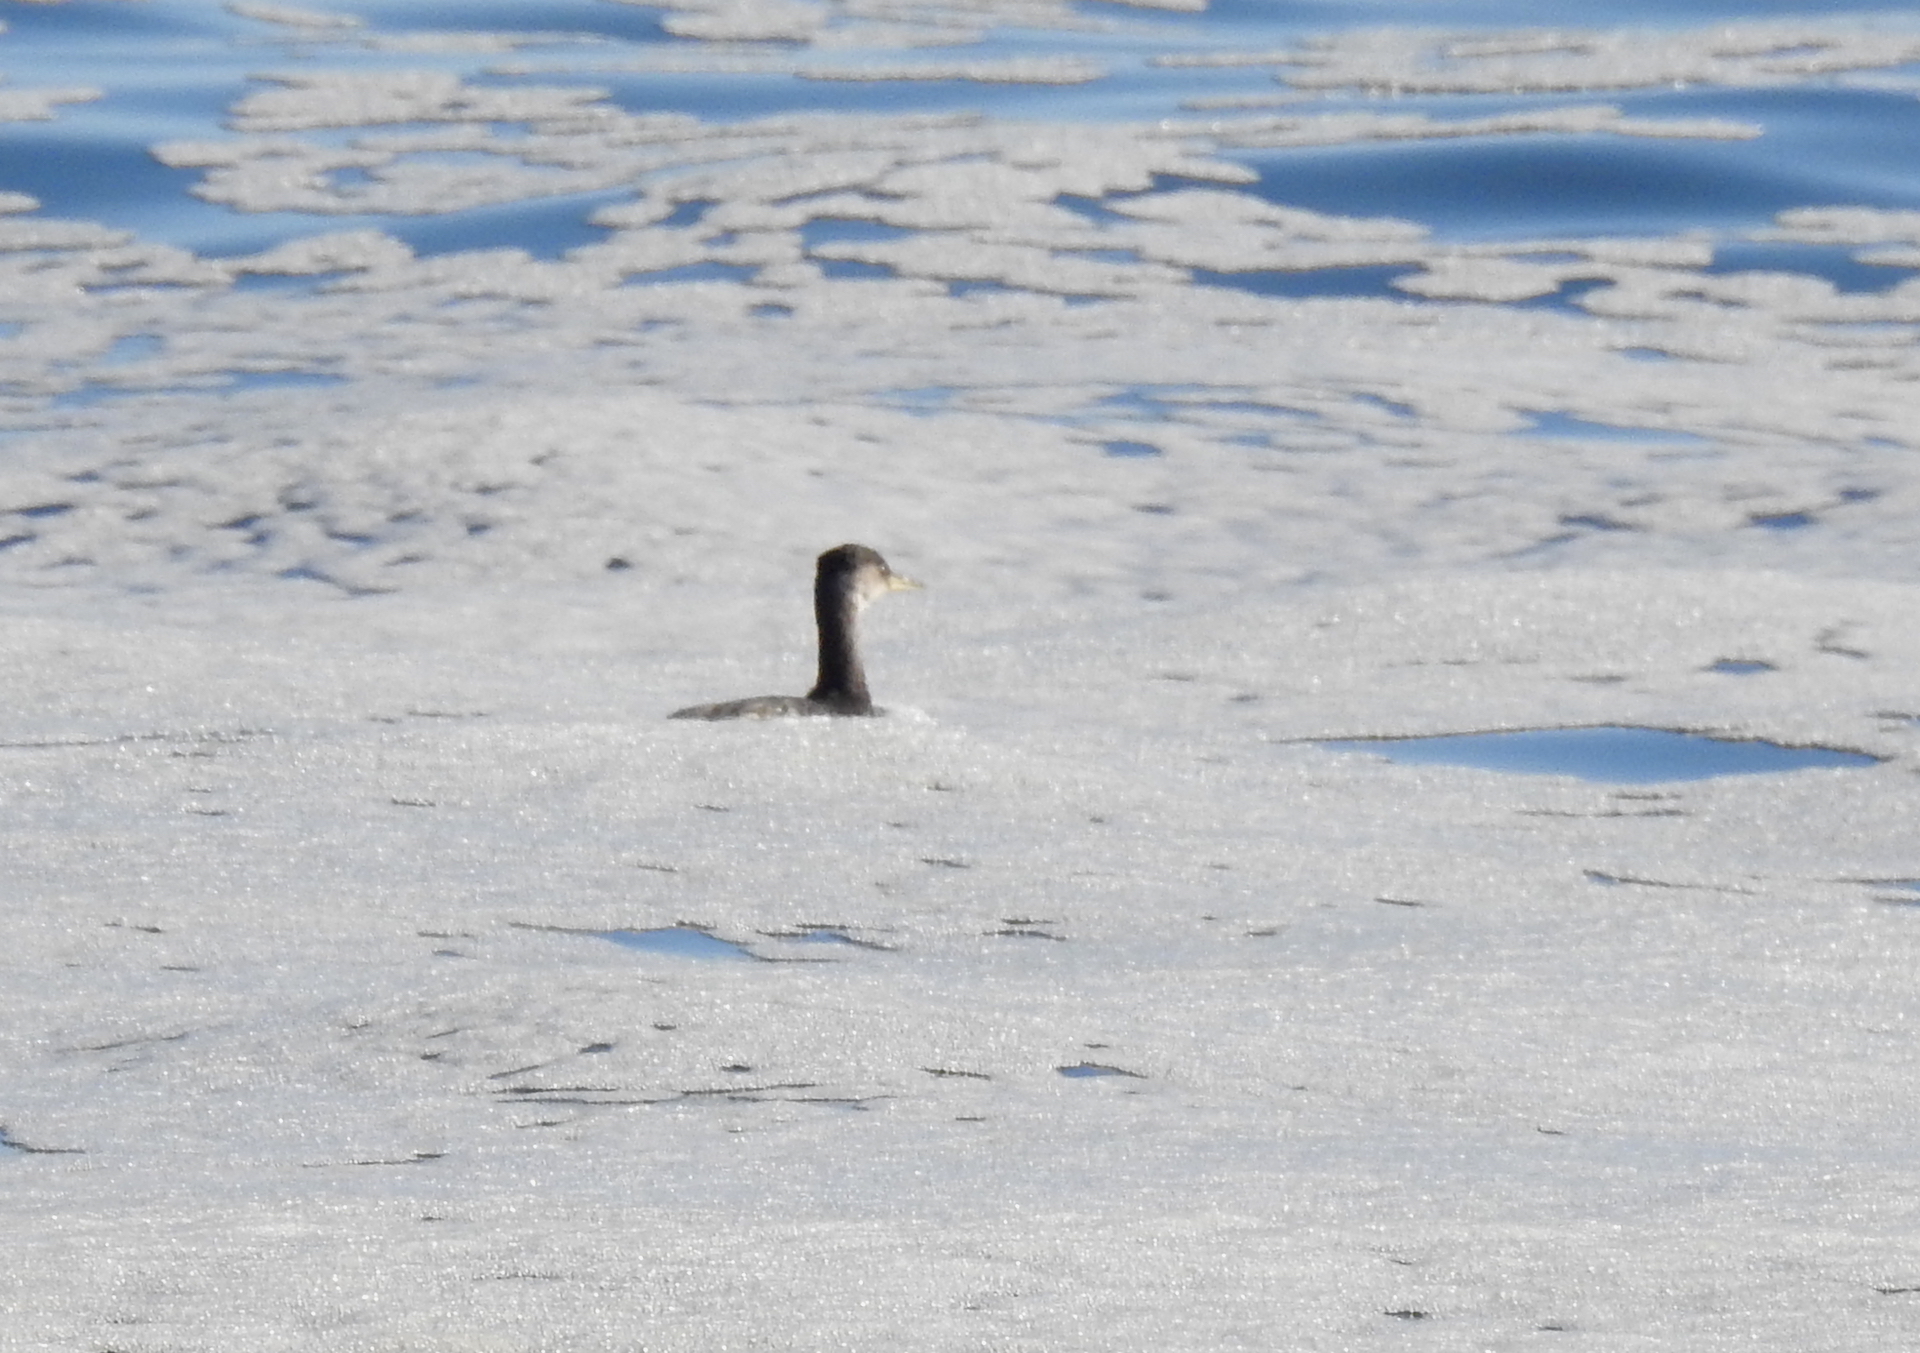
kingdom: Animalia
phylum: Chordata
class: Aves
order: Podicipediformes
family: Podicipedidae
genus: Podiceps
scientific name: Podiceps grisegena
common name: Red-necked grebe
